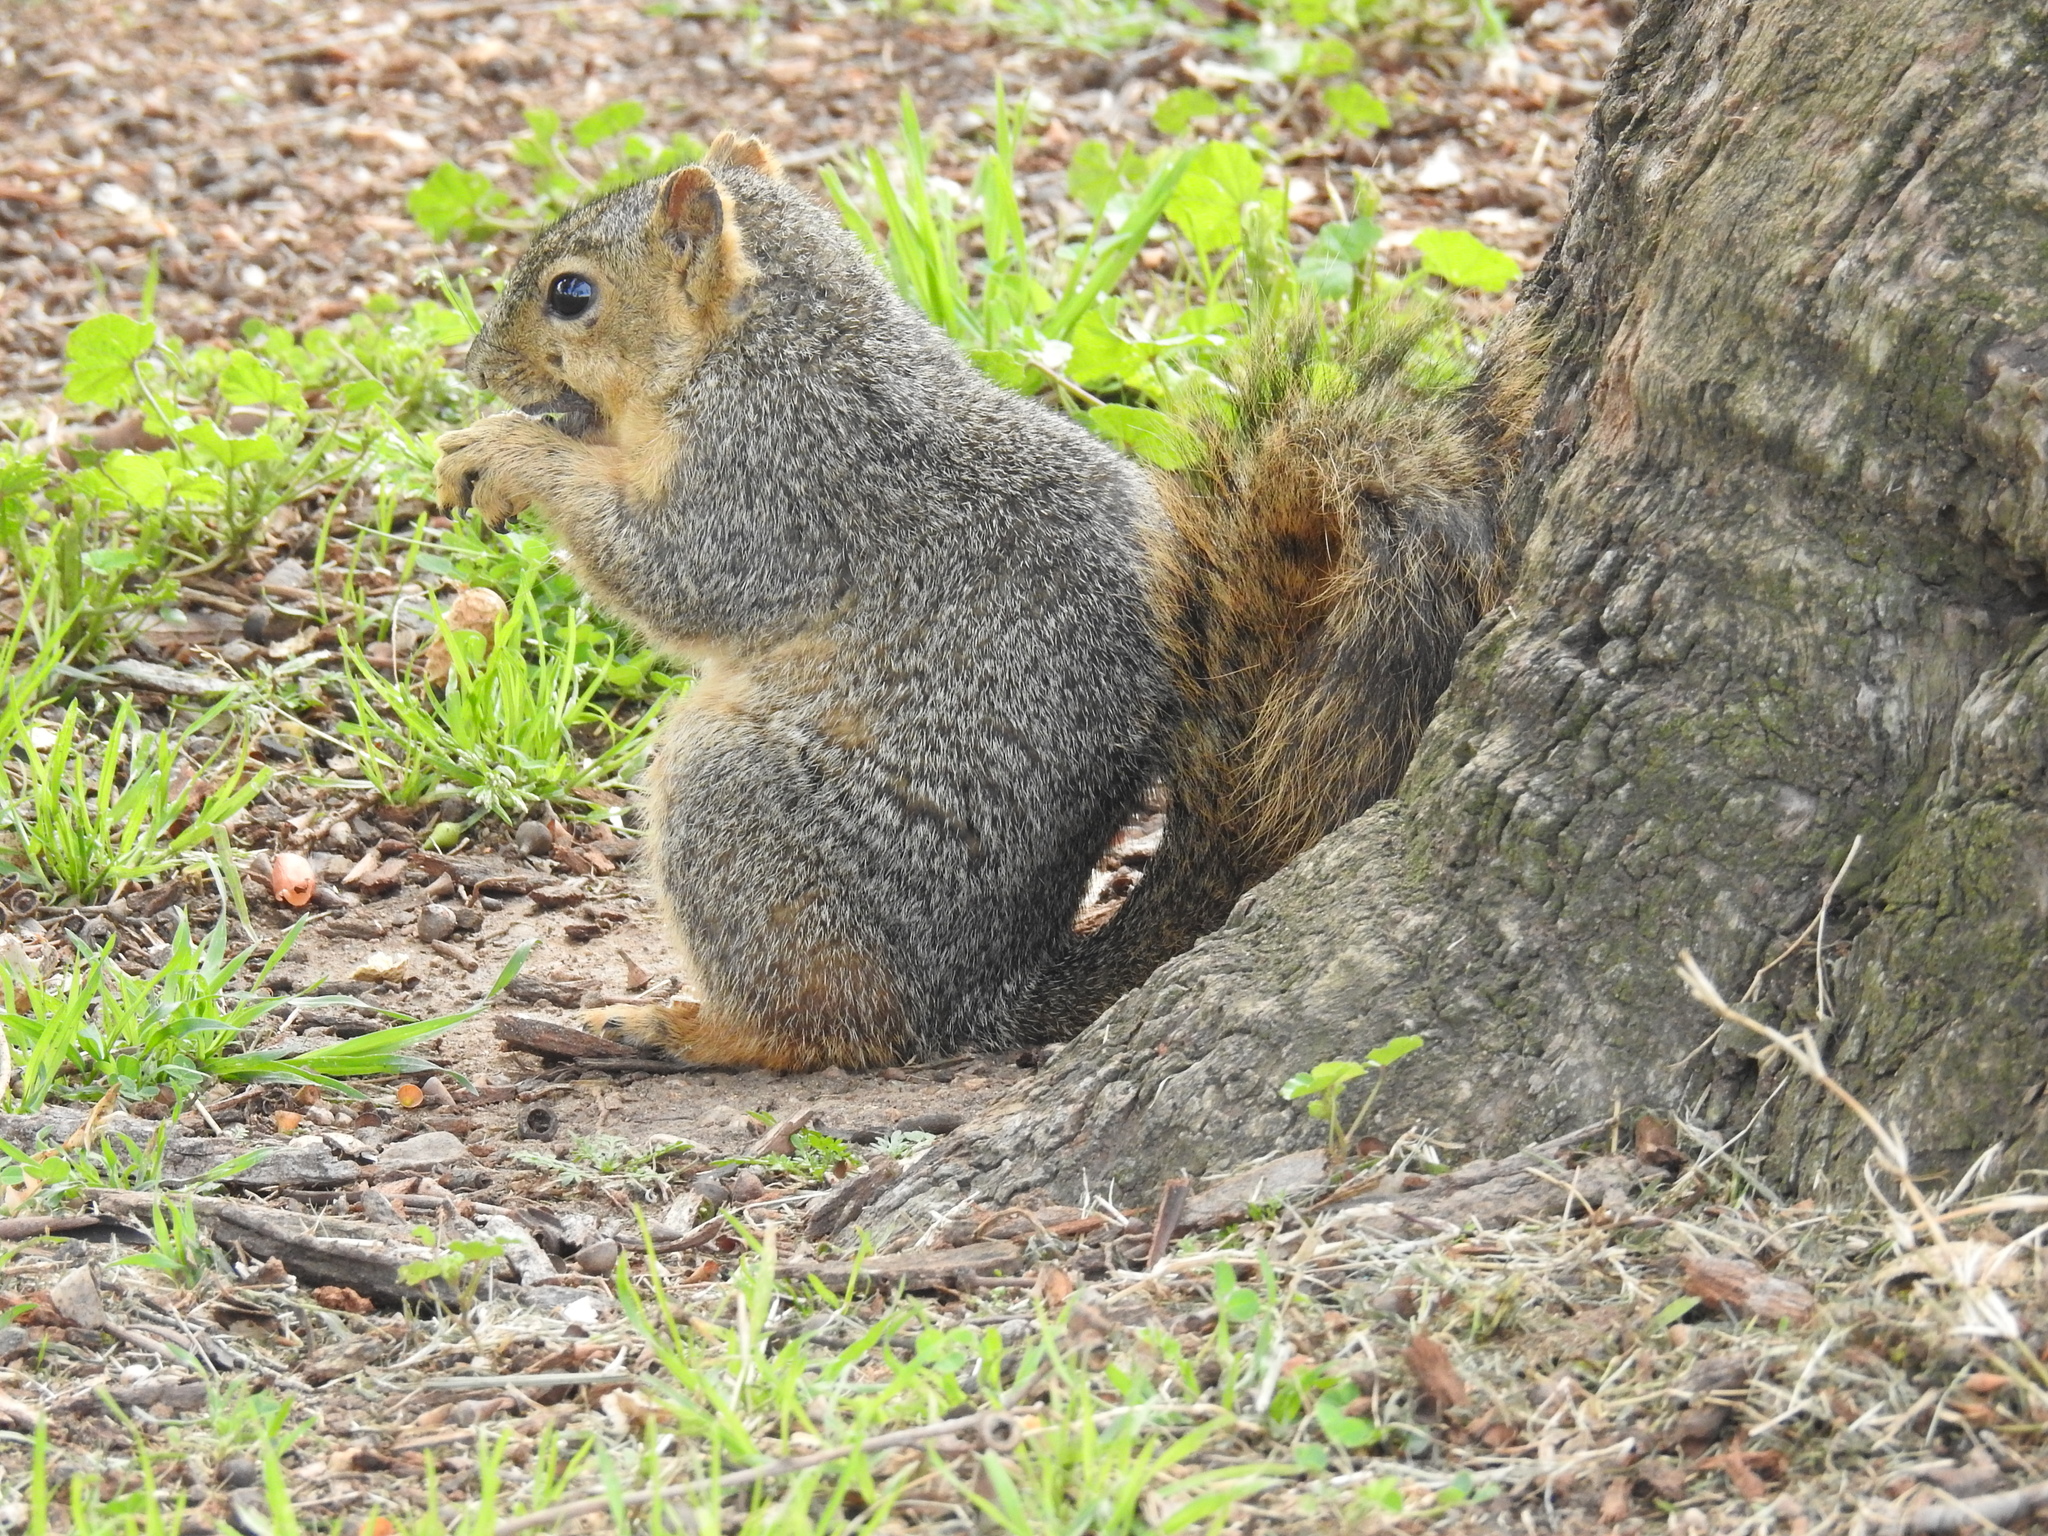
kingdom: Animalia
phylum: Chordata
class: Mammalia
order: Rodentia
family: Sciuridae
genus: Sciurus
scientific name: Sciurus niger
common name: Fox squirrel
